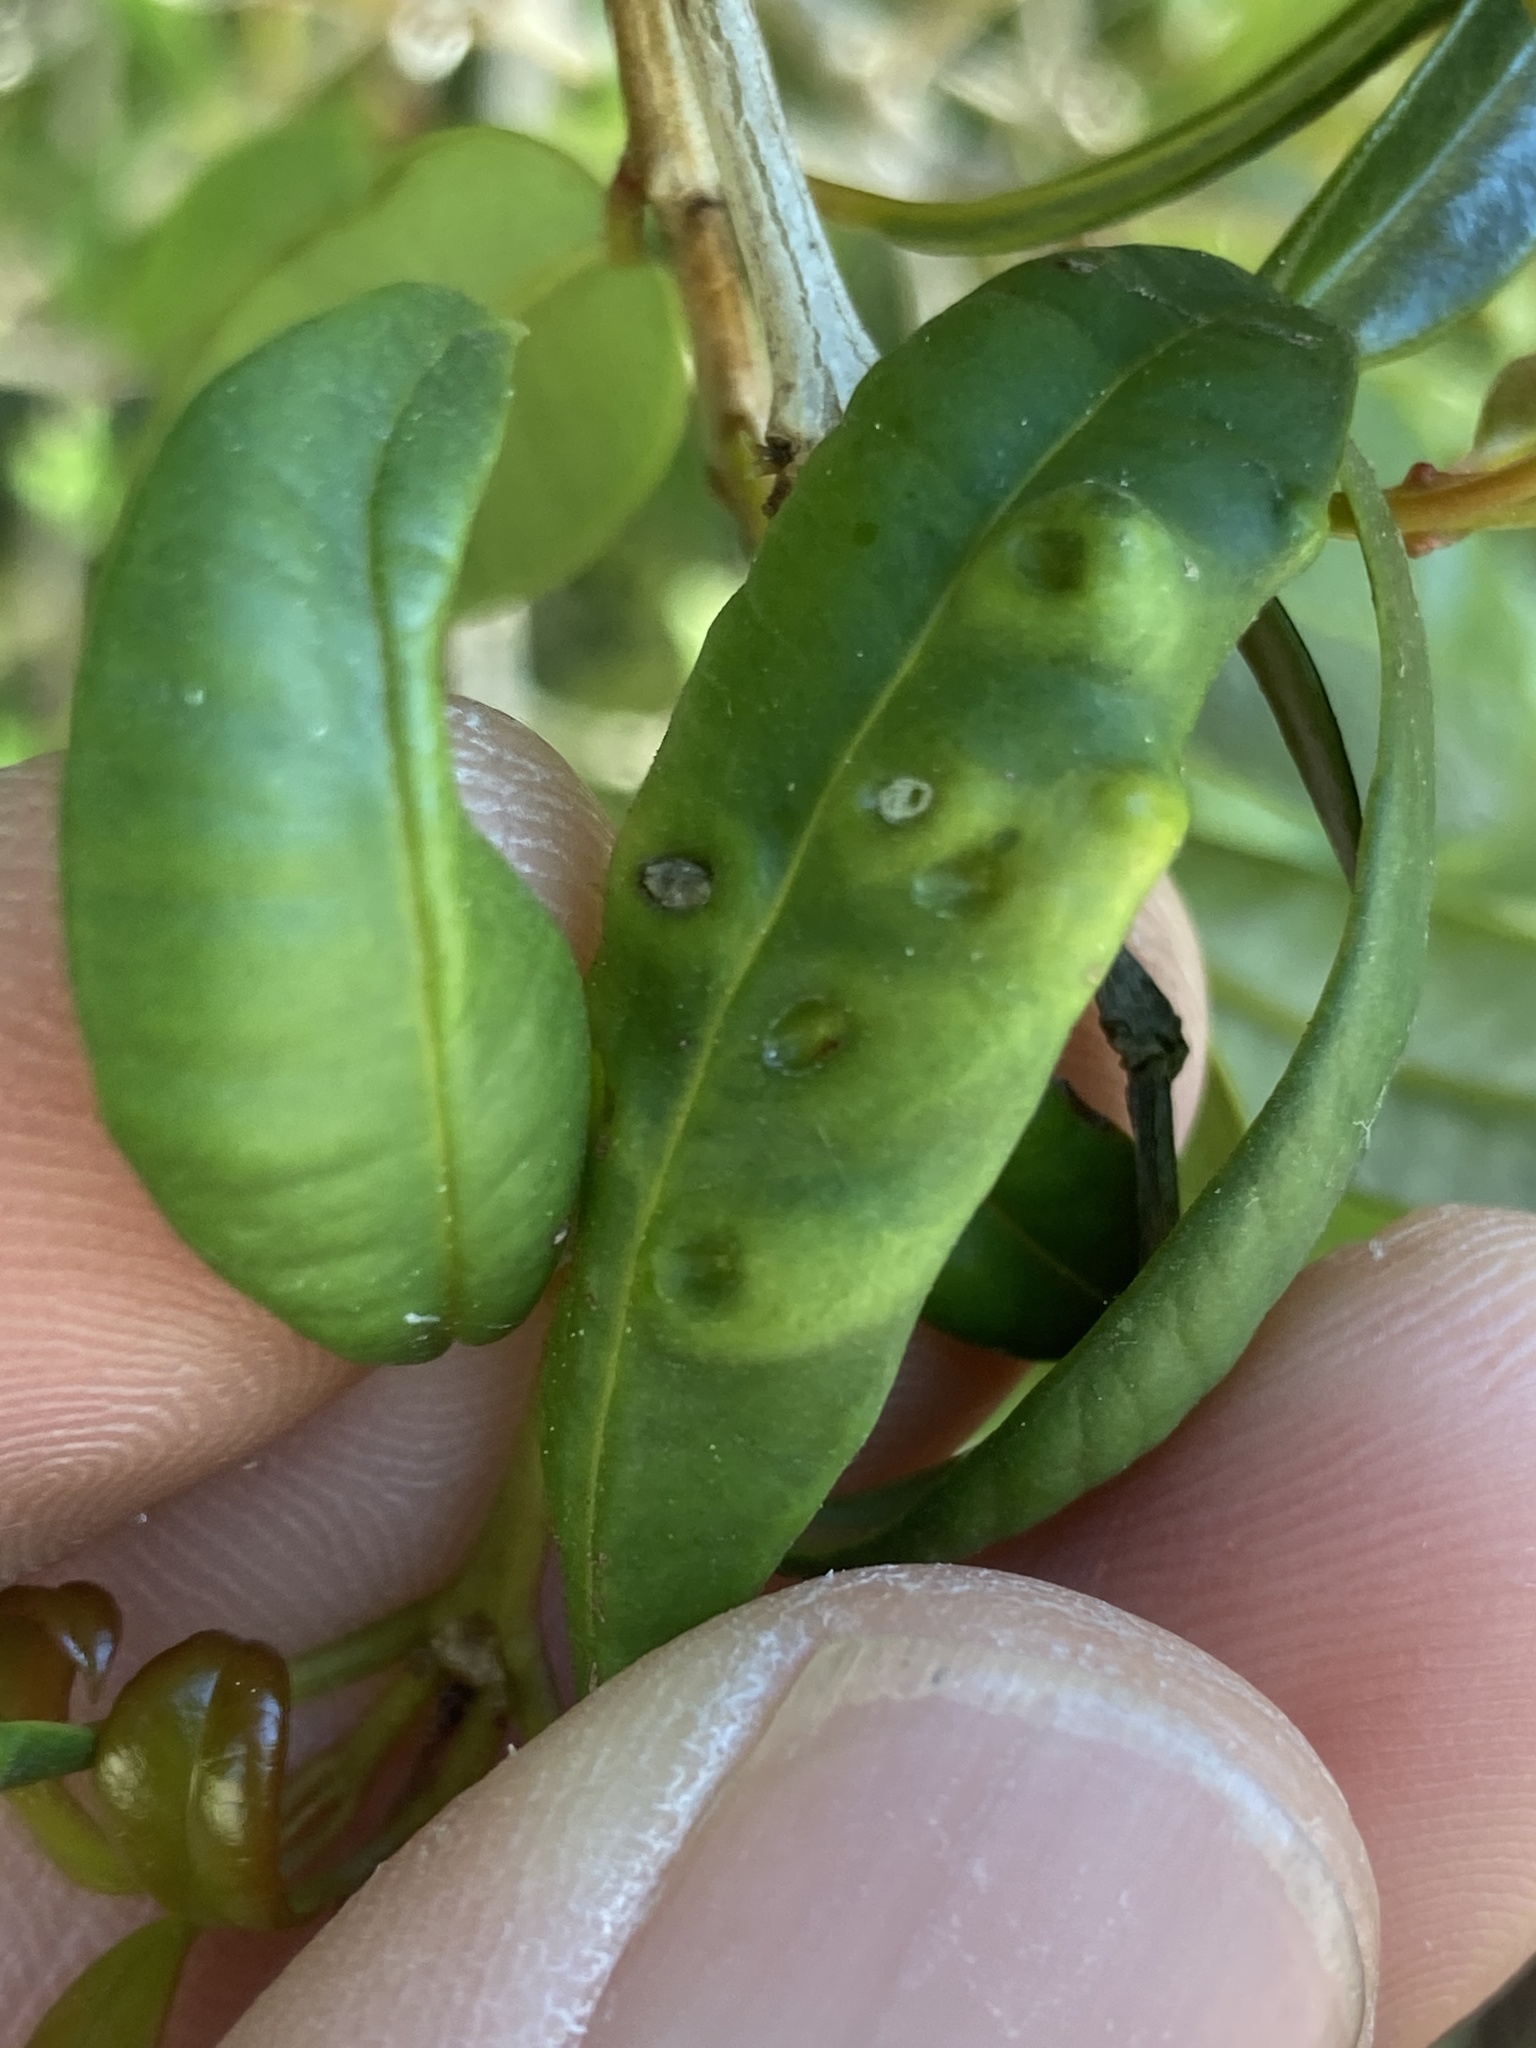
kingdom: Animalia
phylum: Arthropoda
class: Insecta
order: Hemiptera
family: Triozidae
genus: Trioza
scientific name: Trioza adventicia
